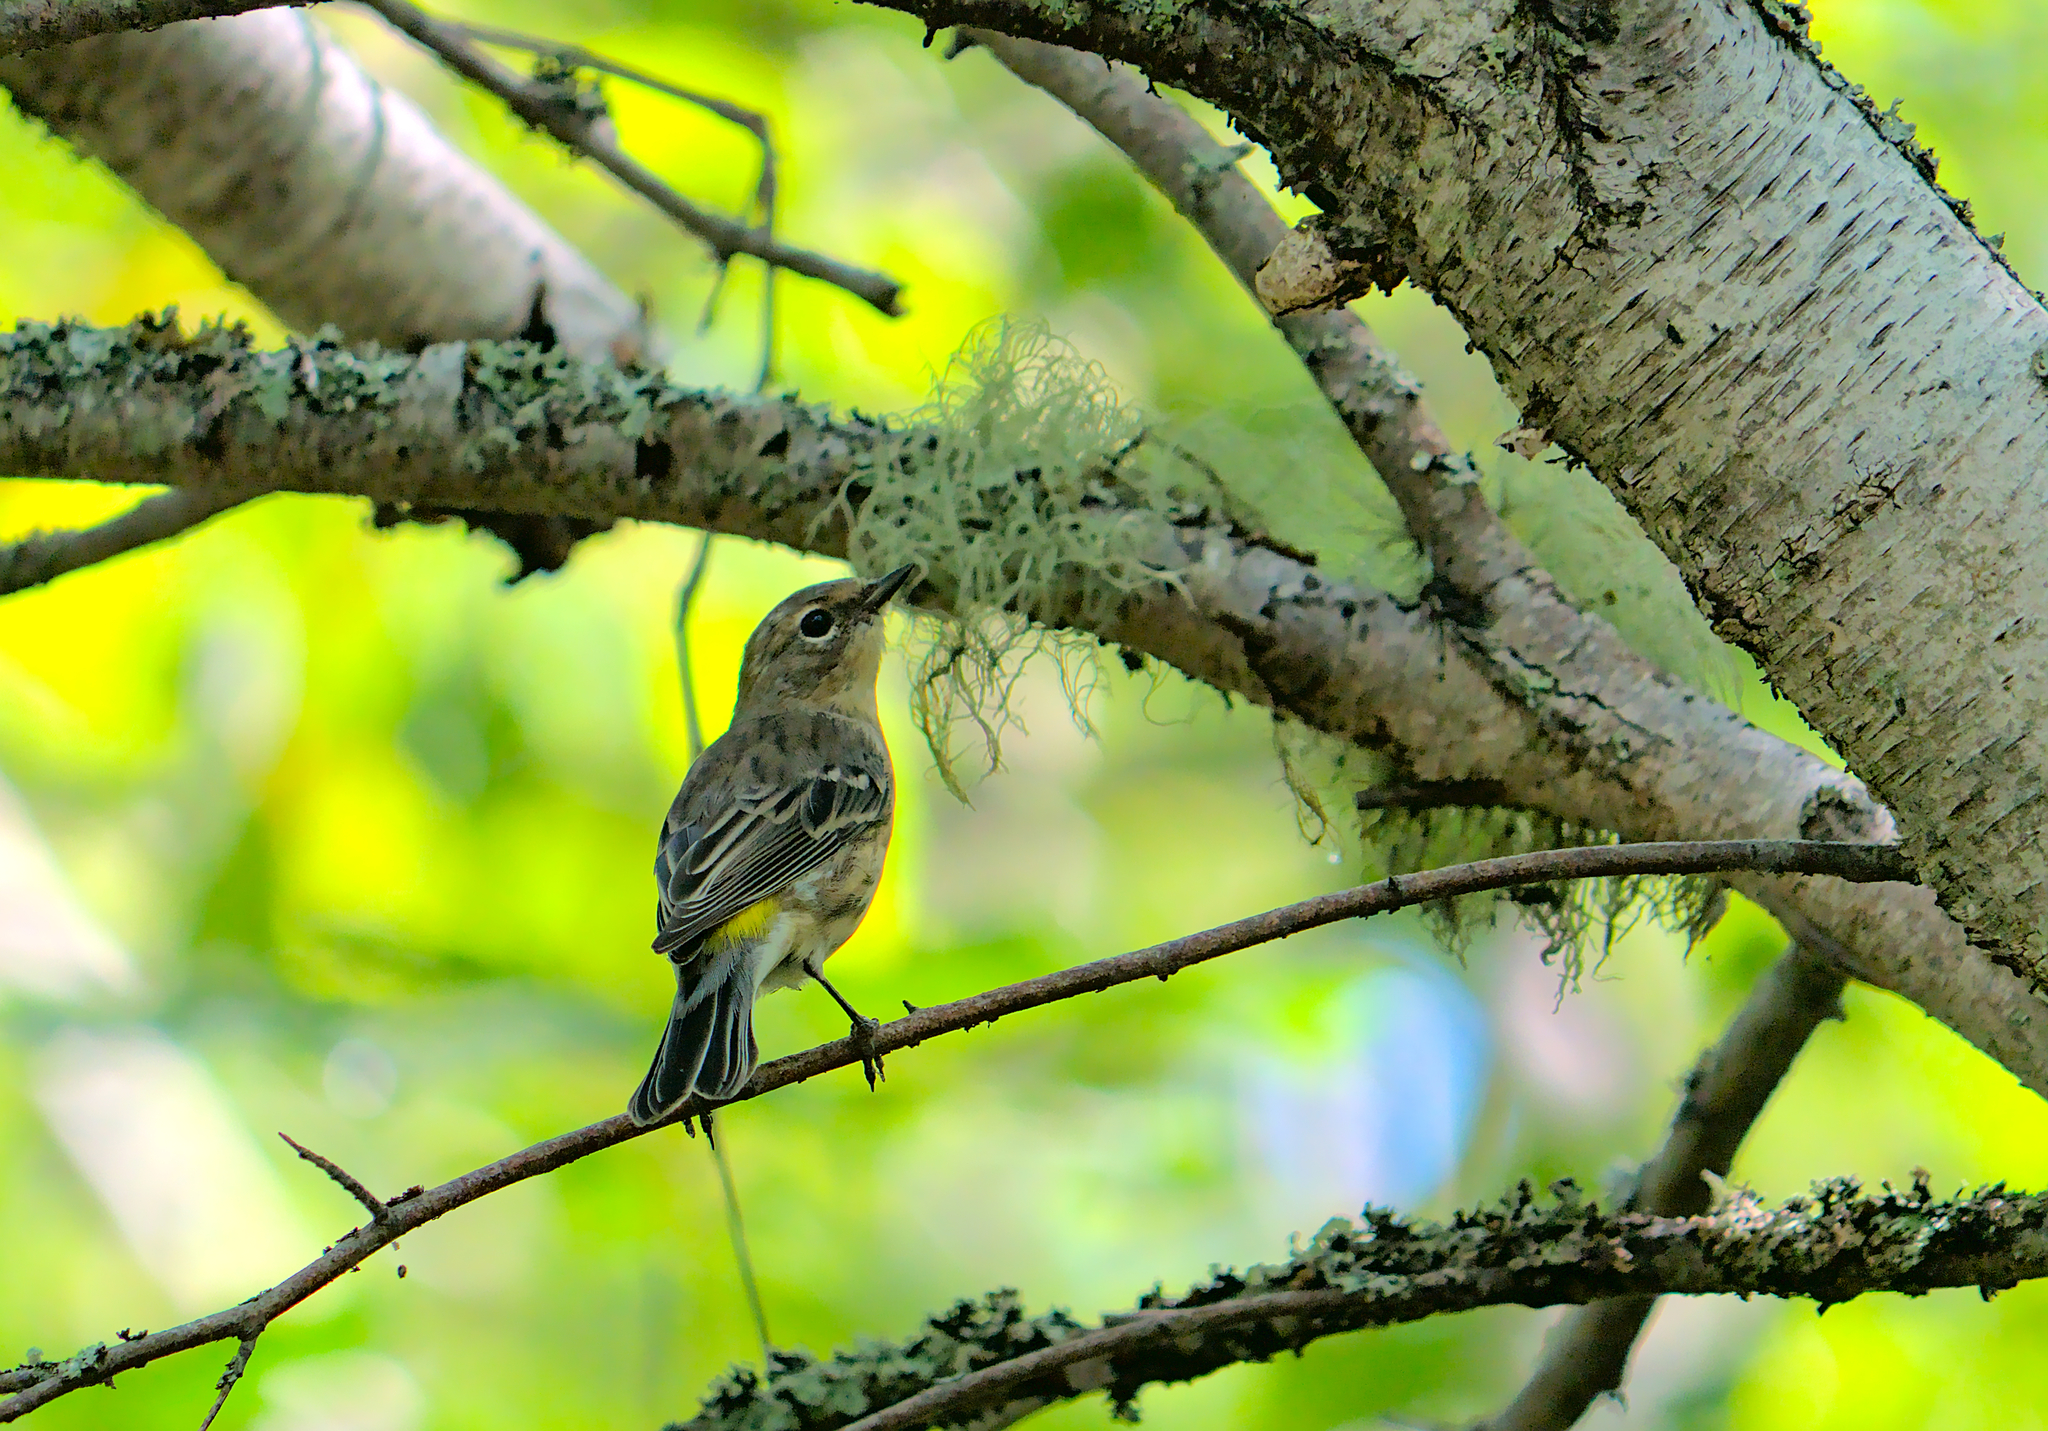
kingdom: Animalia
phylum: Chordata
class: Aves
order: Passeriformes
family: Parulidae
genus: Setophaga
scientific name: Setophaga coronata
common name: Myrtle warbler
